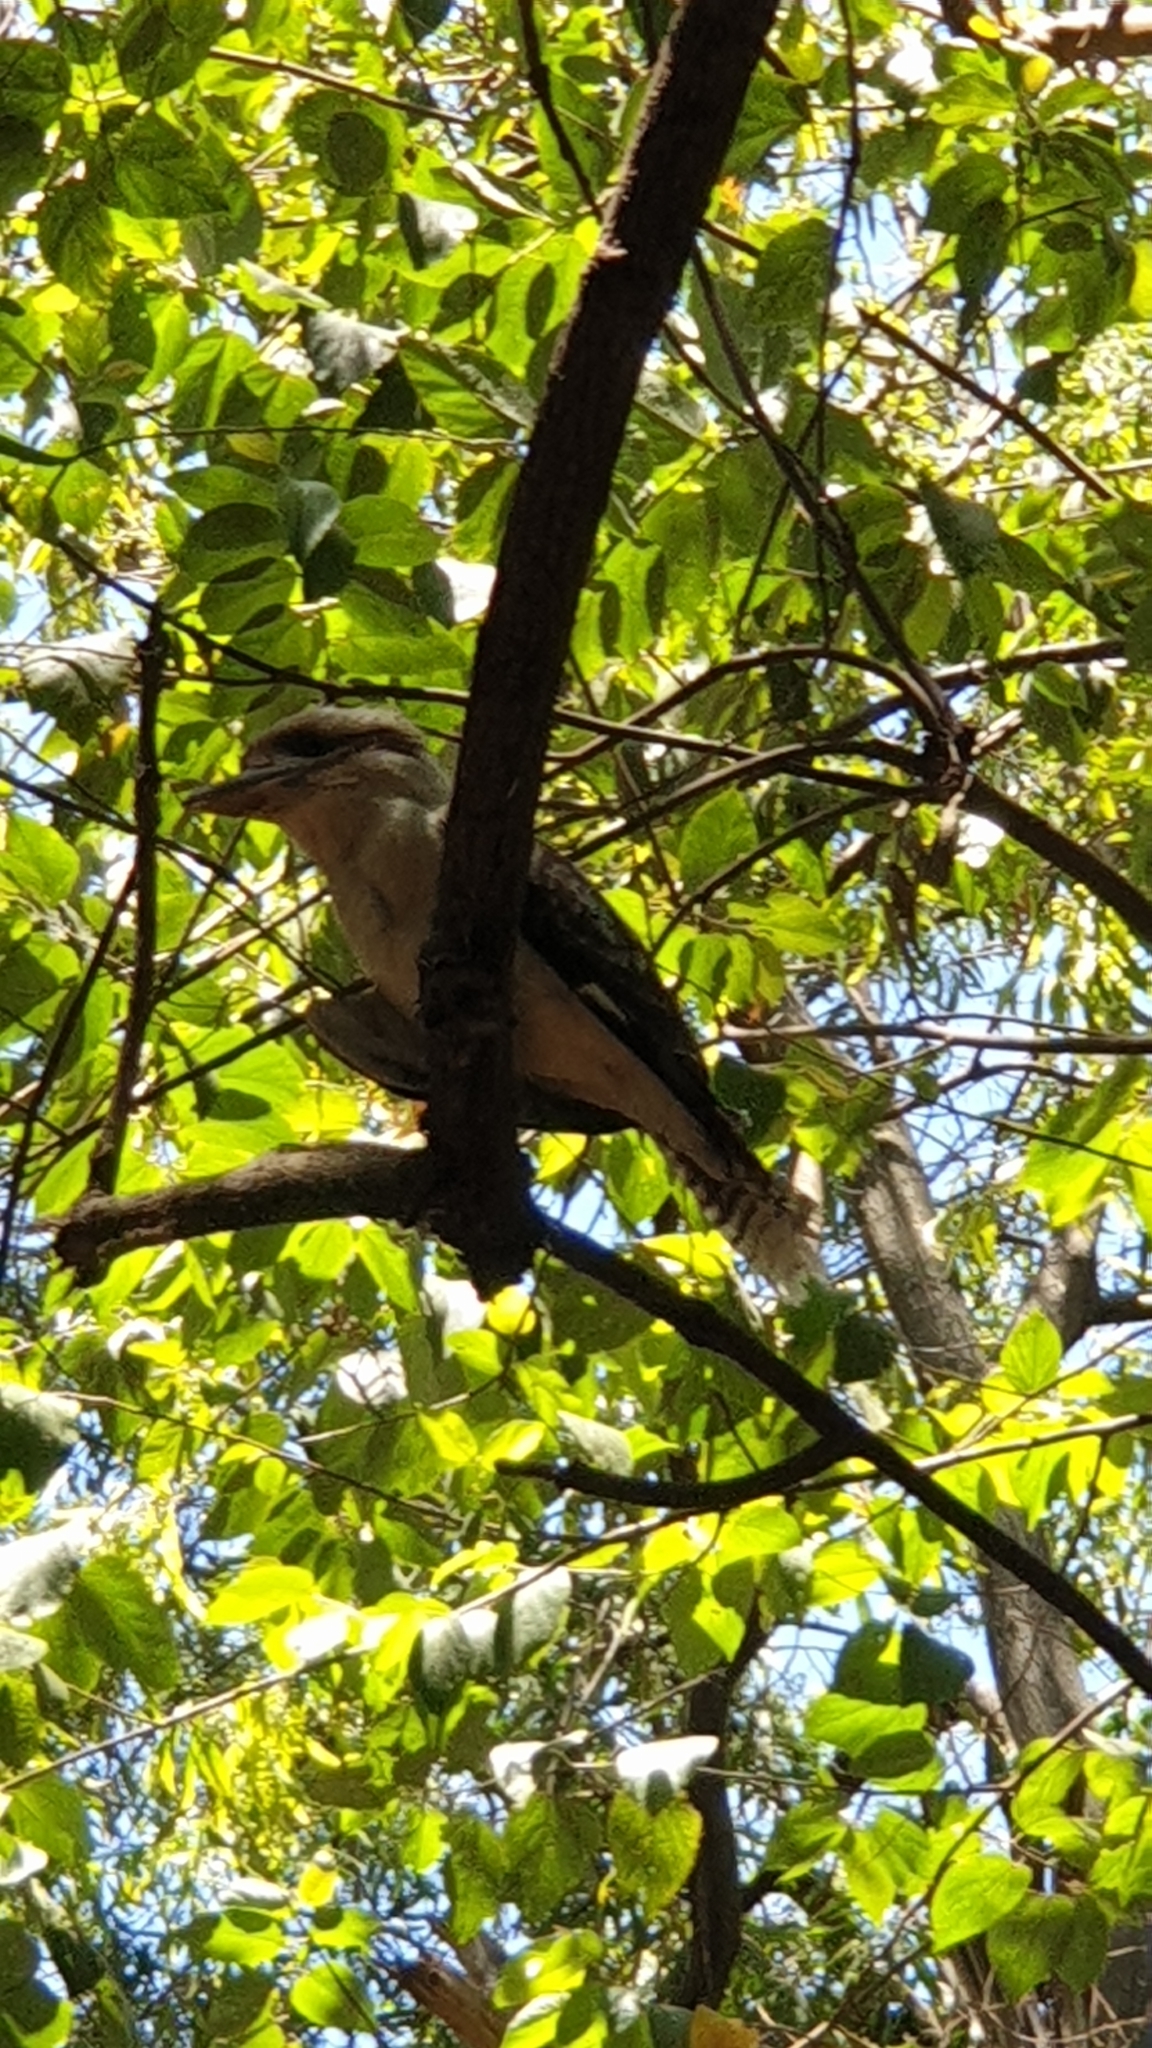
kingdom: Animalia
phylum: Chordata
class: Aves
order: Coraciiformes
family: Alcedinidae
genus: Dacelo
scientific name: Dacelo novaeguineae
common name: Laughing kookaburra
